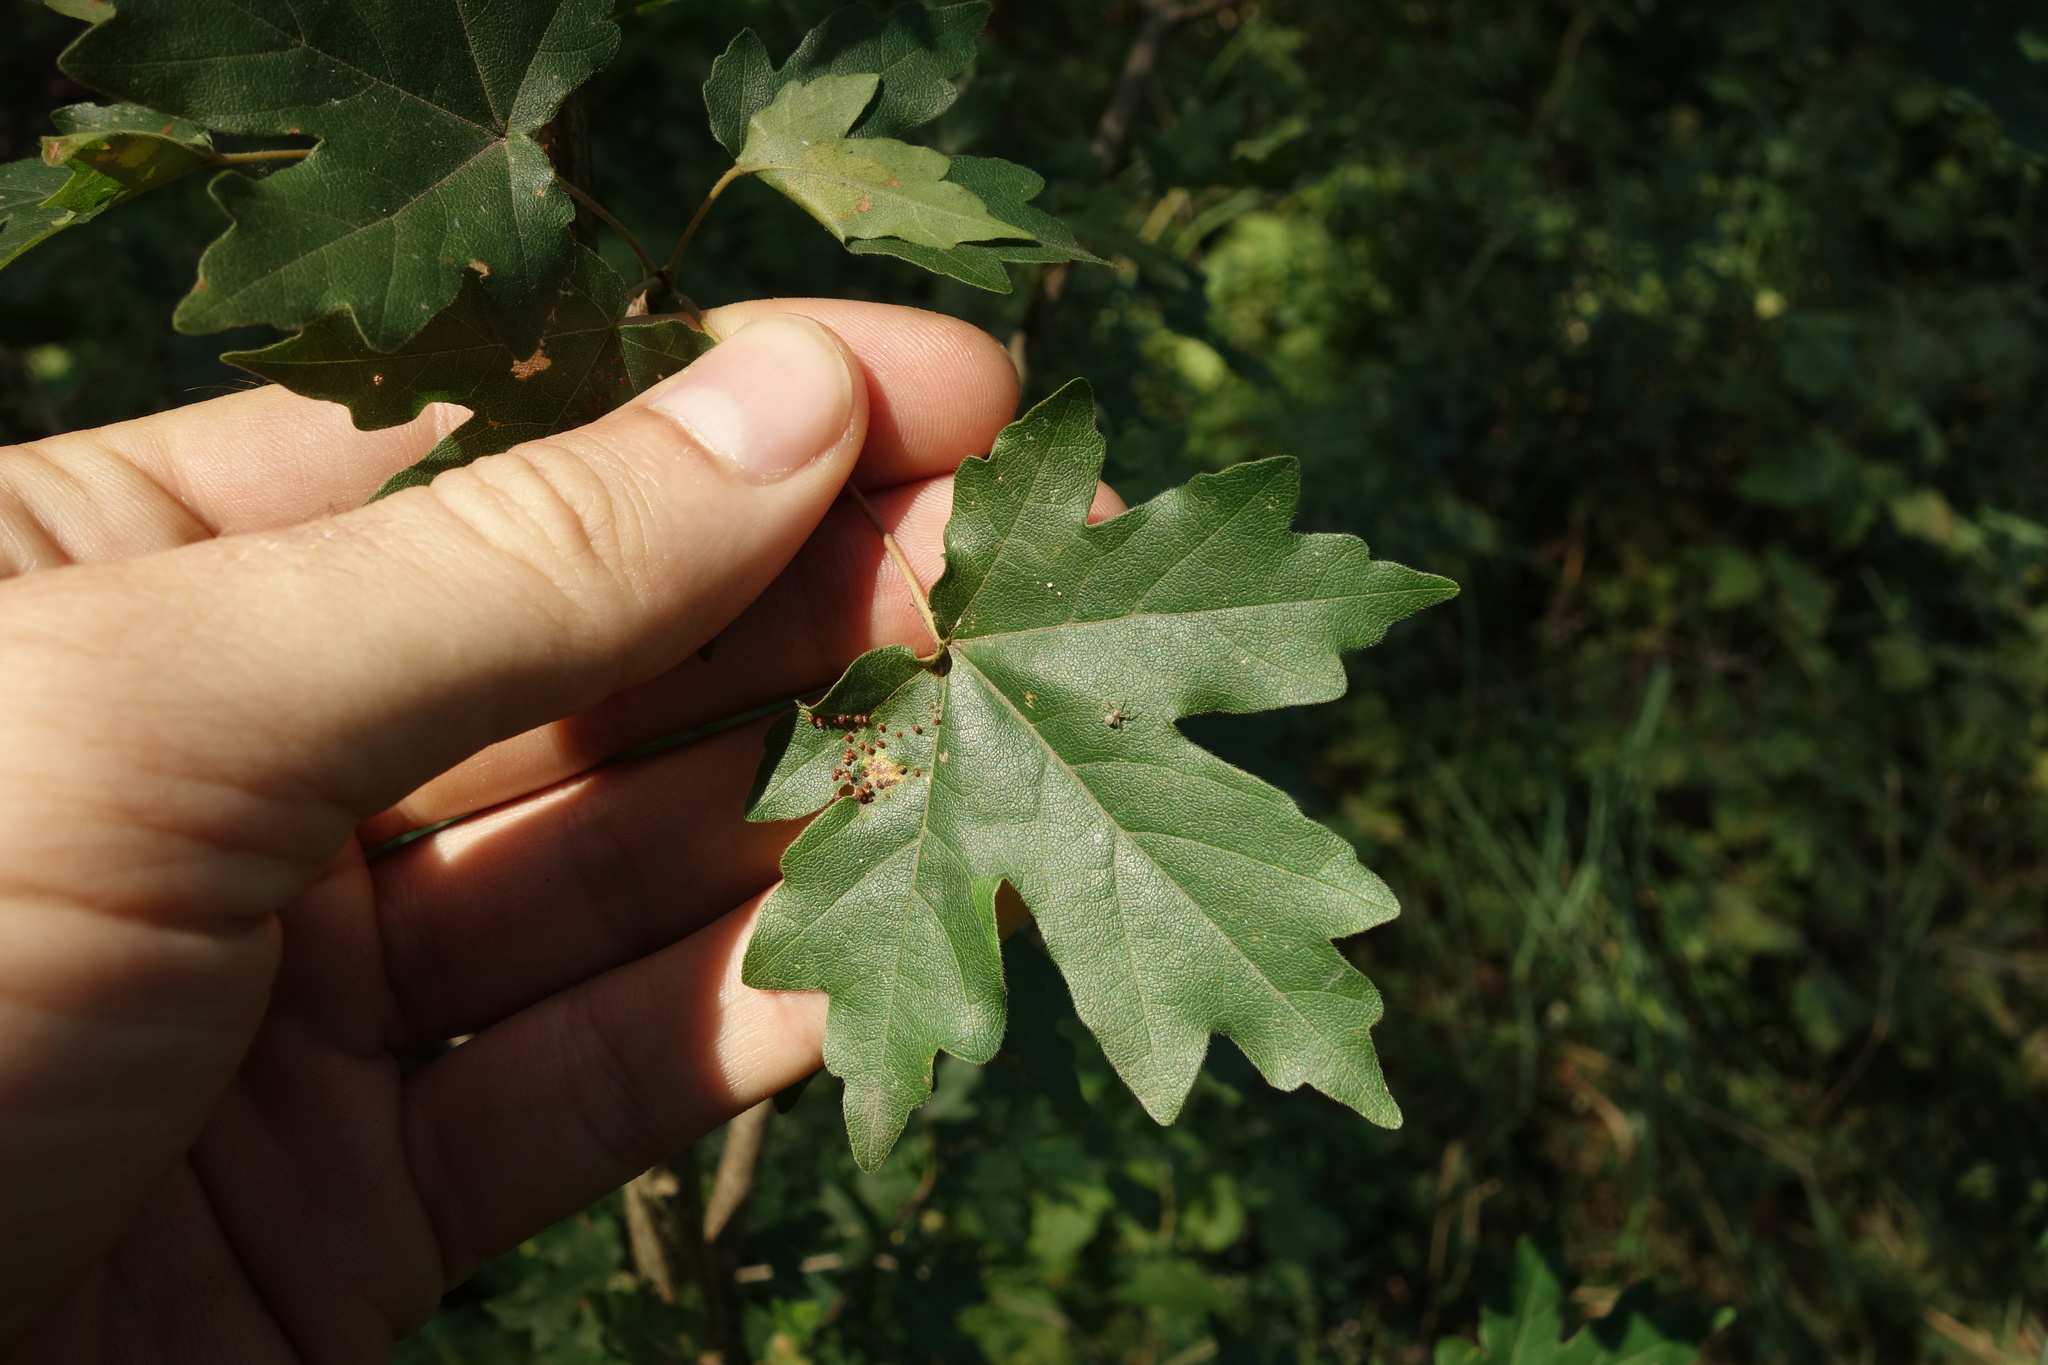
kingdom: Plantae
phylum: Tracheophyta
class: Magnoliopsida
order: Sapindales
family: Sapindaceae
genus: Acer
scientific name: Acer campestre
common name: Field maple
